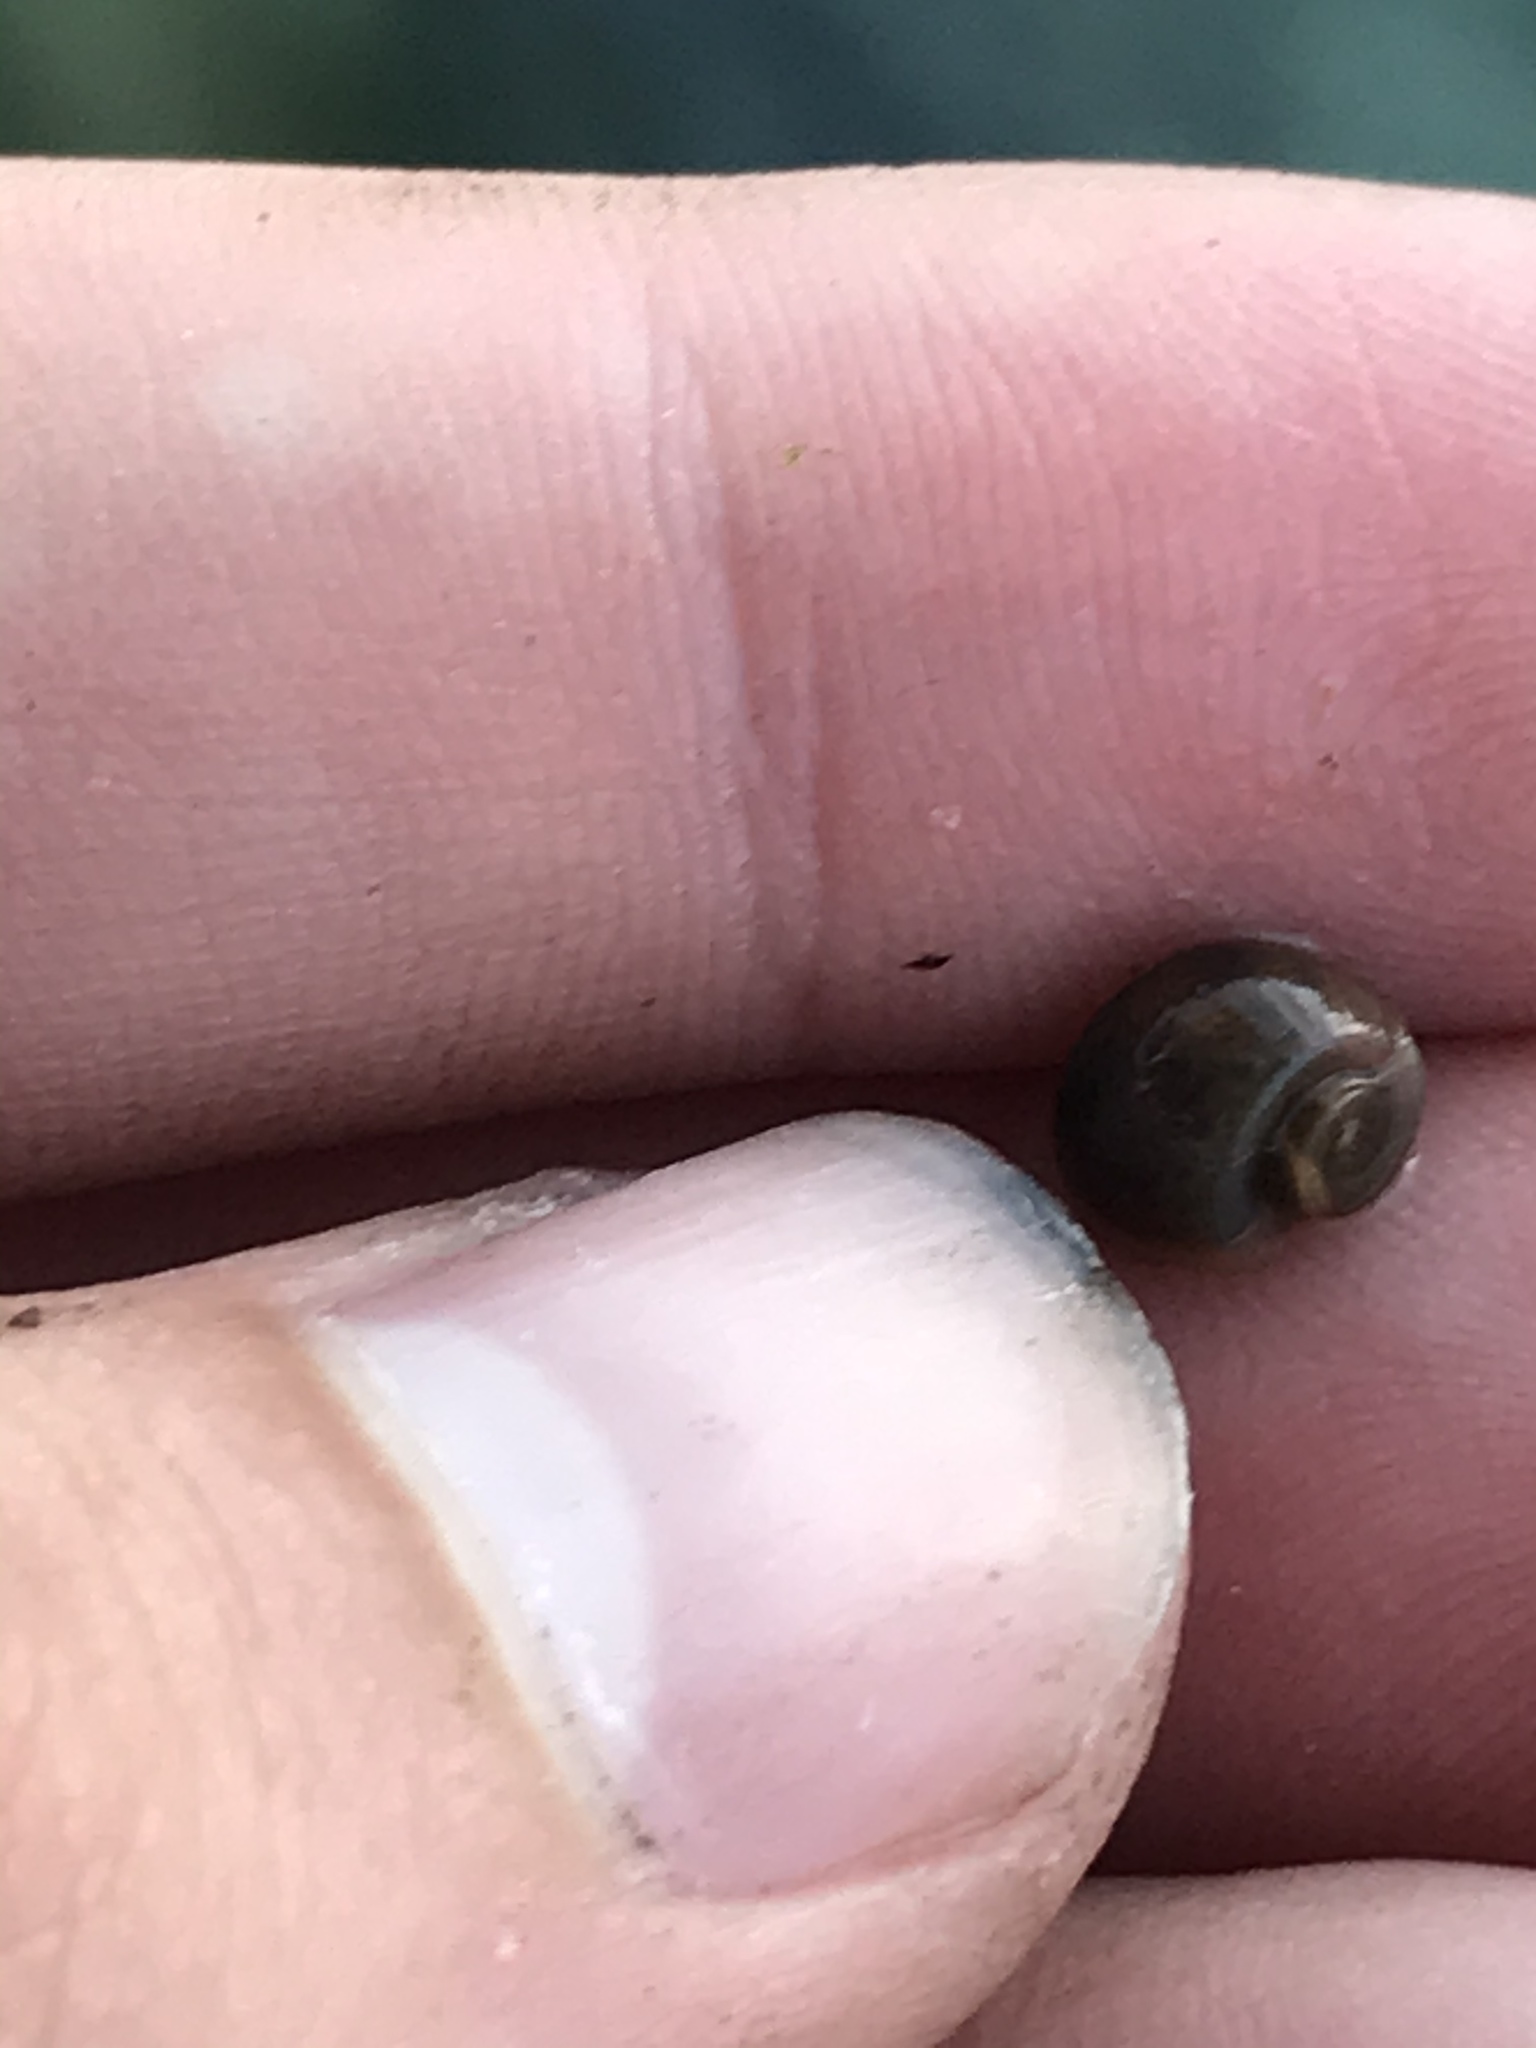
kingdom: Animalia
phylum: Mollusca
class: Gastropoda
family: Planorbidae
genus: Planorbella
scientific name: Planorbella duryi
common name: Seminole rams-horn
